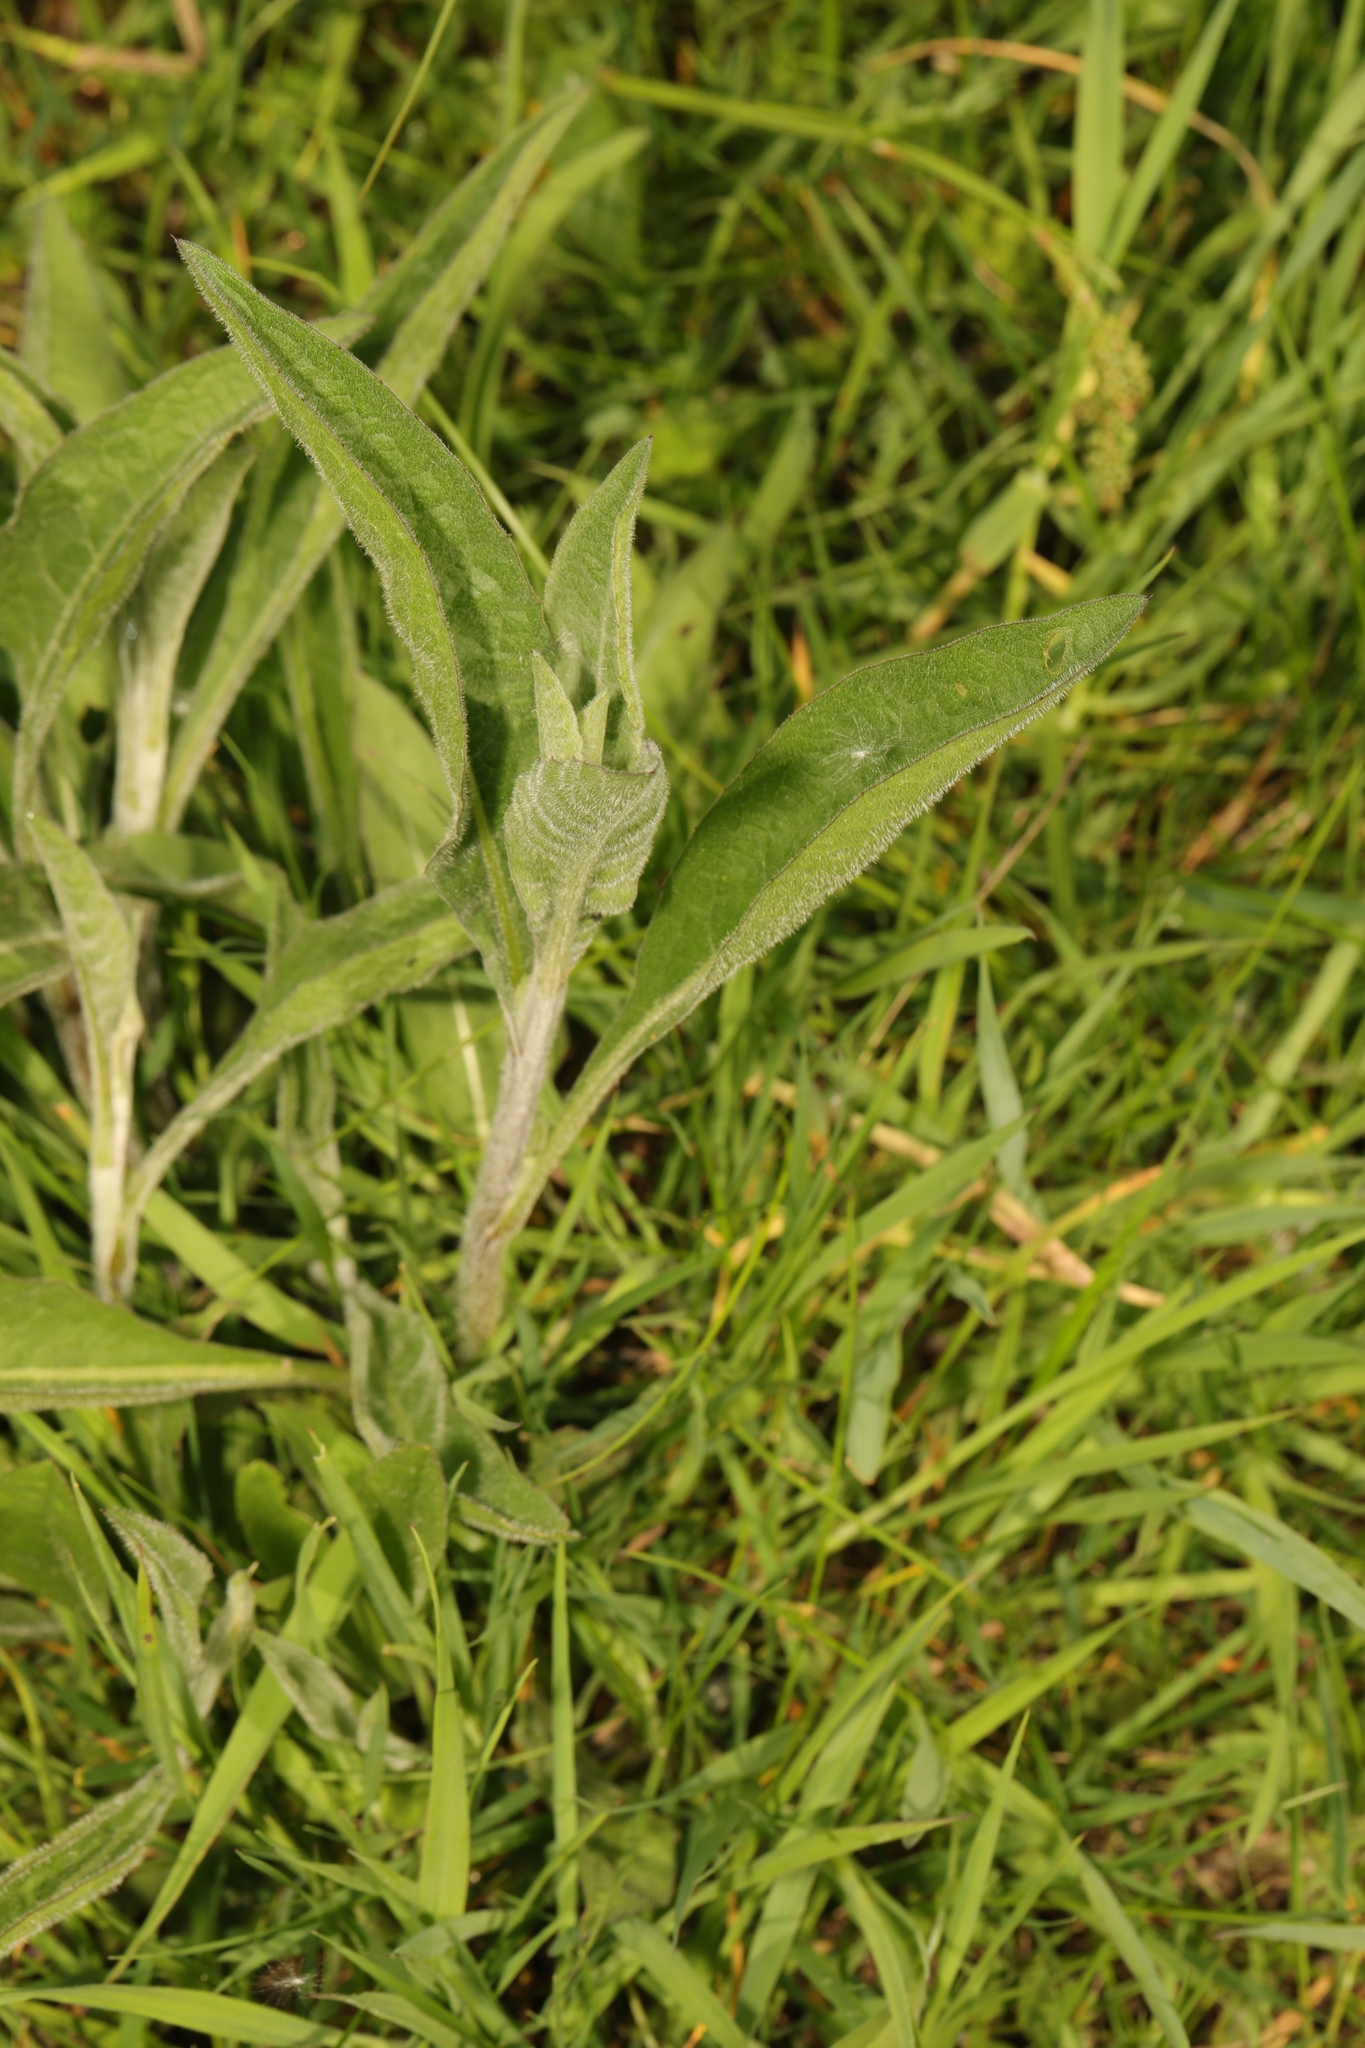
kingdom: Plantae
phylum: Tracheophyta
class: Magnoliopsida
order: Asterales
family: Asteraceae
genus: Centaurea
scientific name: Centaurea nigra
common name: Lesser knapweed
